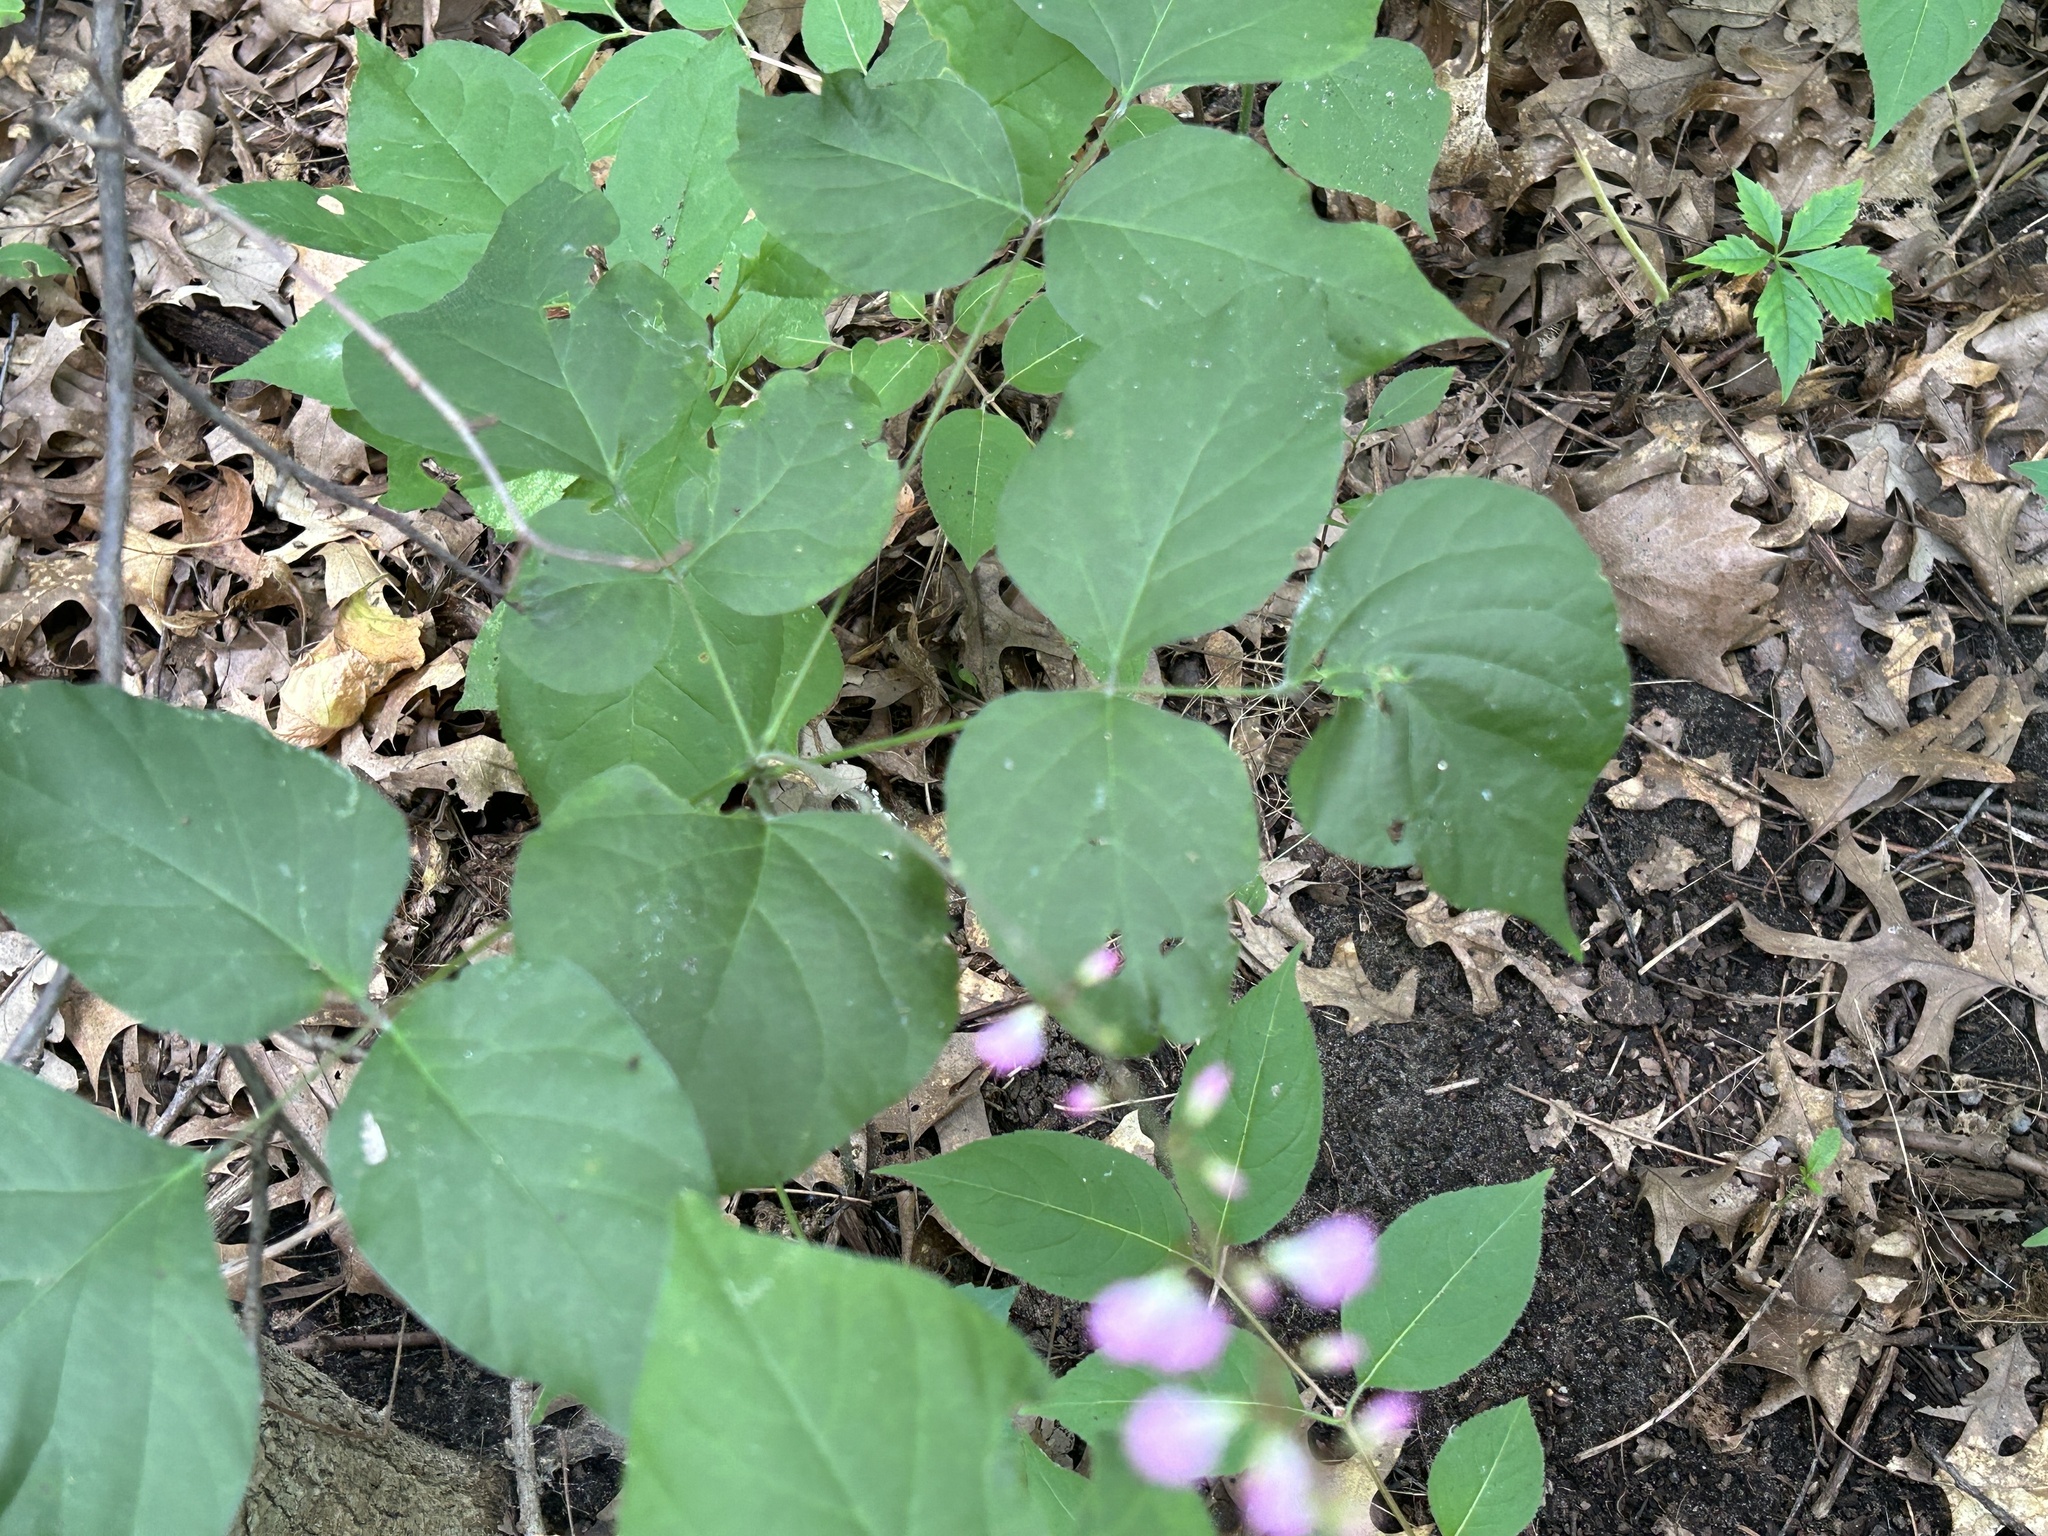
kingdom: Plantae
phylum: Tracheophyta
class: Magnoliopsida
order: Fabales
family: Fabaceae
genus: Hylodesmum
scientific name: Hylodesmum glutinosum
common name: Clustered-leaved tick-trefoil
